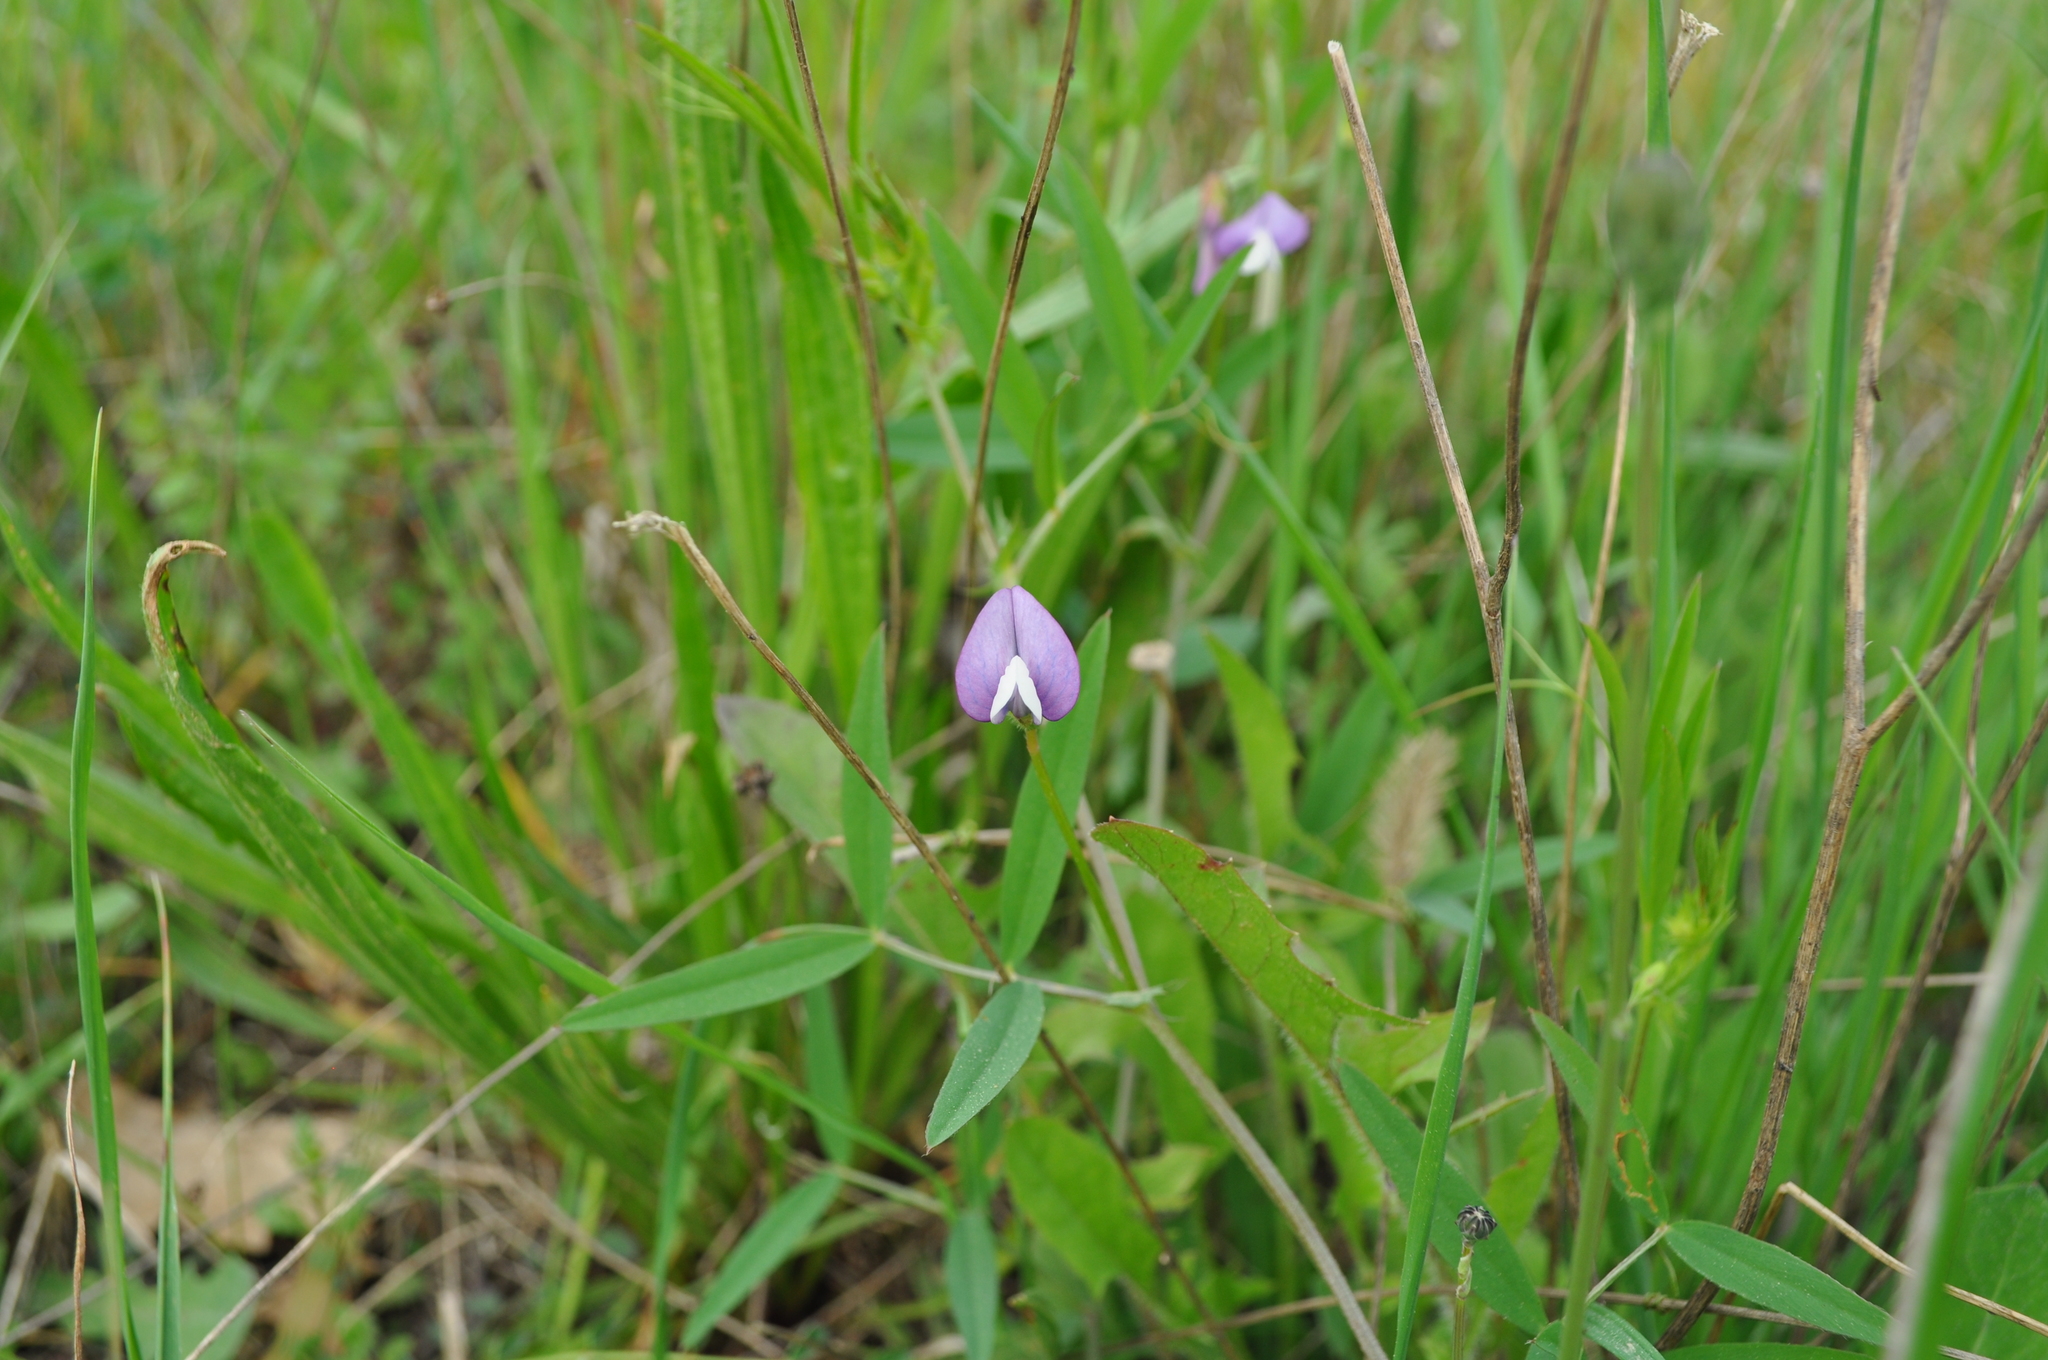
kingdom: Plantae
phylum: Tracheophyta
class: Magnoliopsida
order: Fabales
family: Fabaceae
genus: Vicia
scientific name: Vicia bithynica
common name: Bithynian vetch
